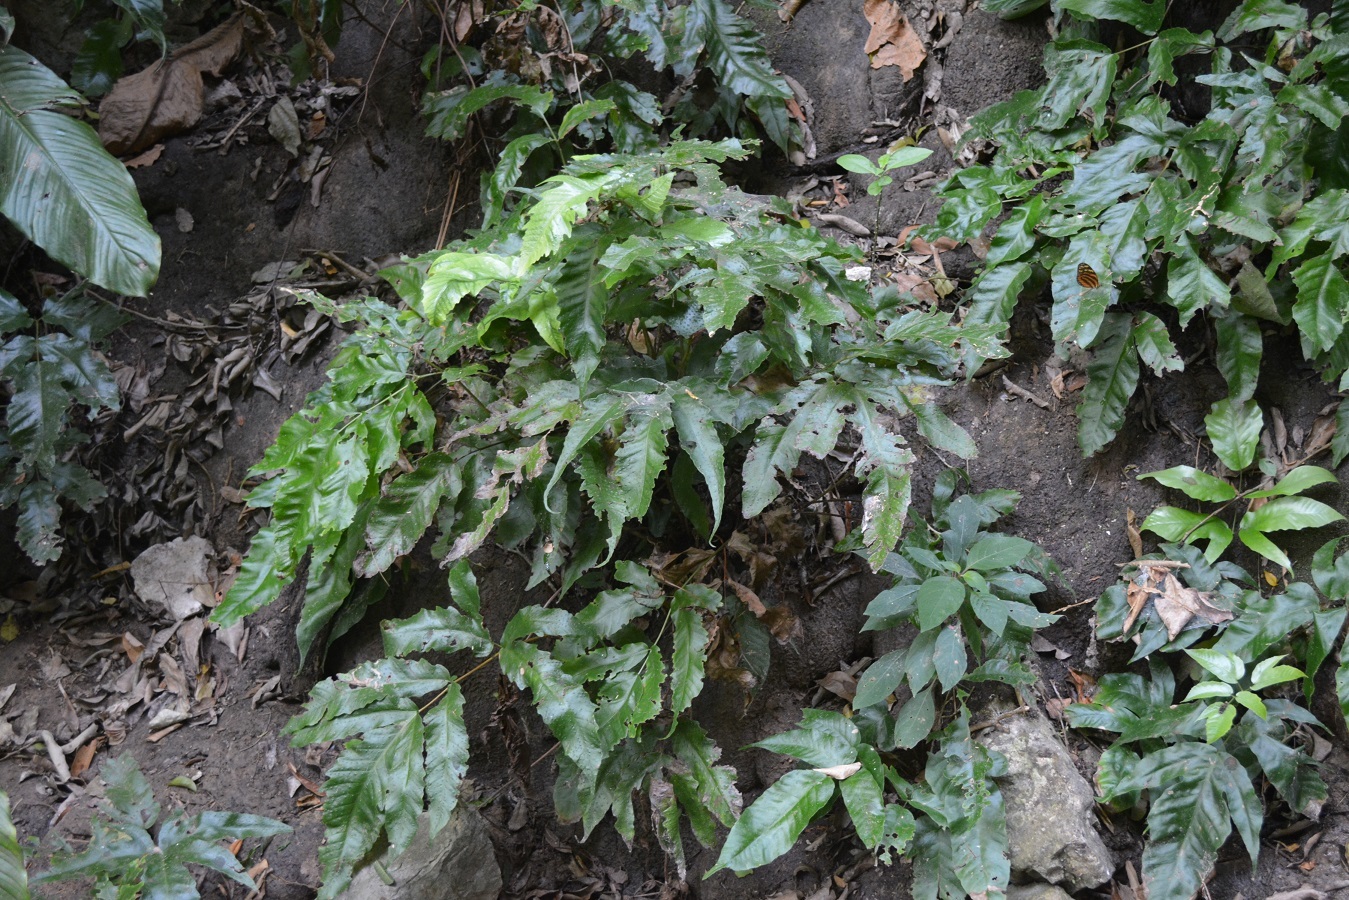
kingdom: Plantae
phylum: Tracheophyta
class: Polypodiopsida
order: Polypodiales
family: Tectariaceae
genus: Tectaria
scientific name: Tectaria heracleifolia
